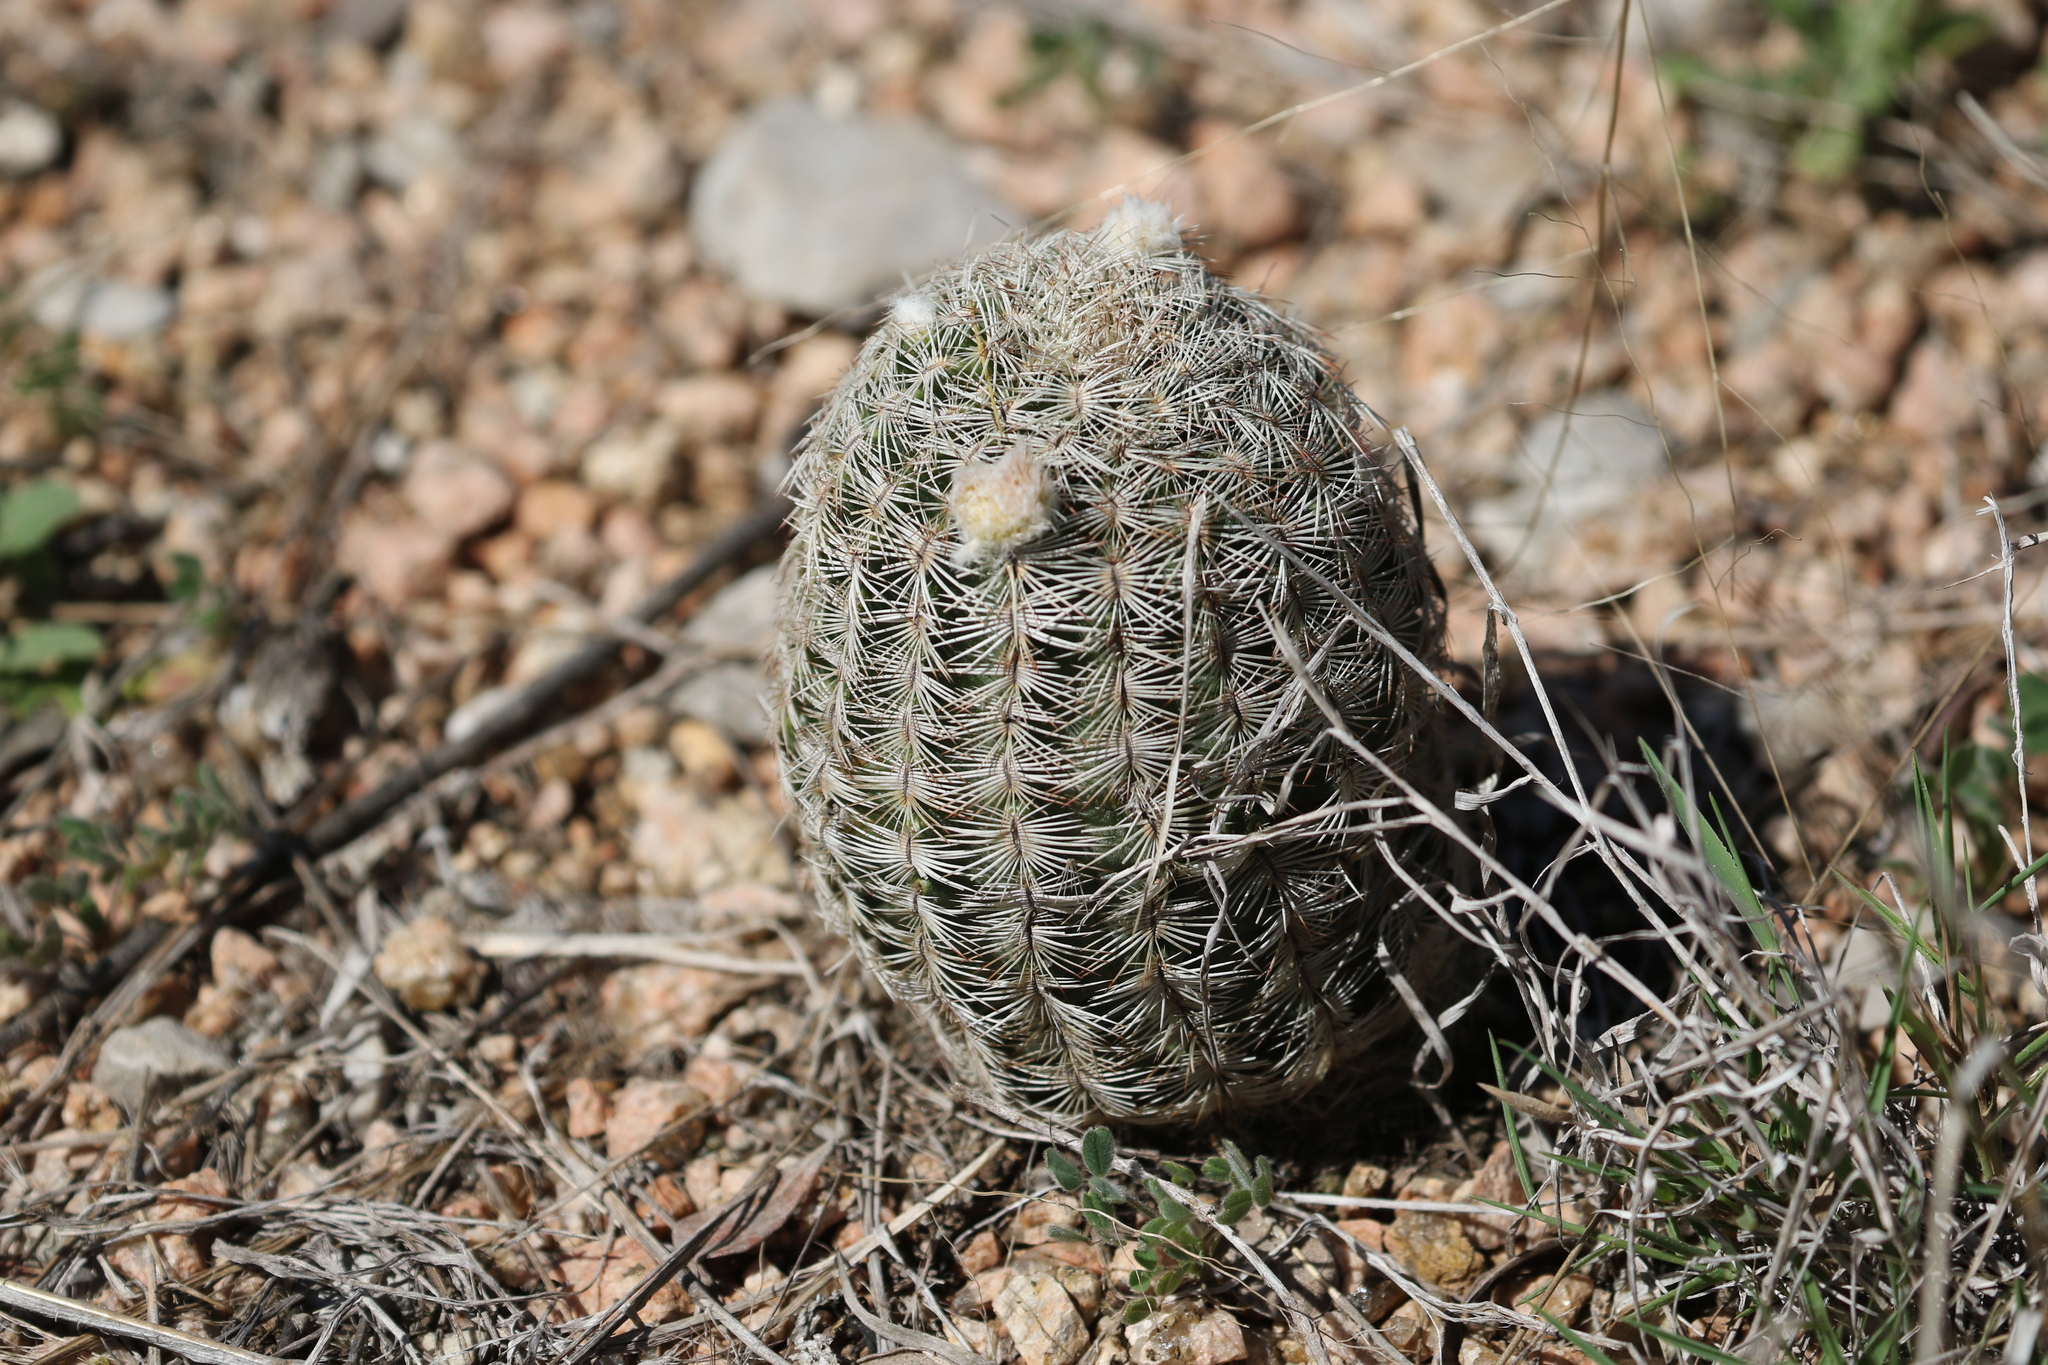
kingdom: Plantae
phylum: Tracheophyta
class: Magnoliopsida
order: Caryophyllales
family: Cactaceae
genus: Echinocereus
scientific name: Echinocereus reichenbachii
